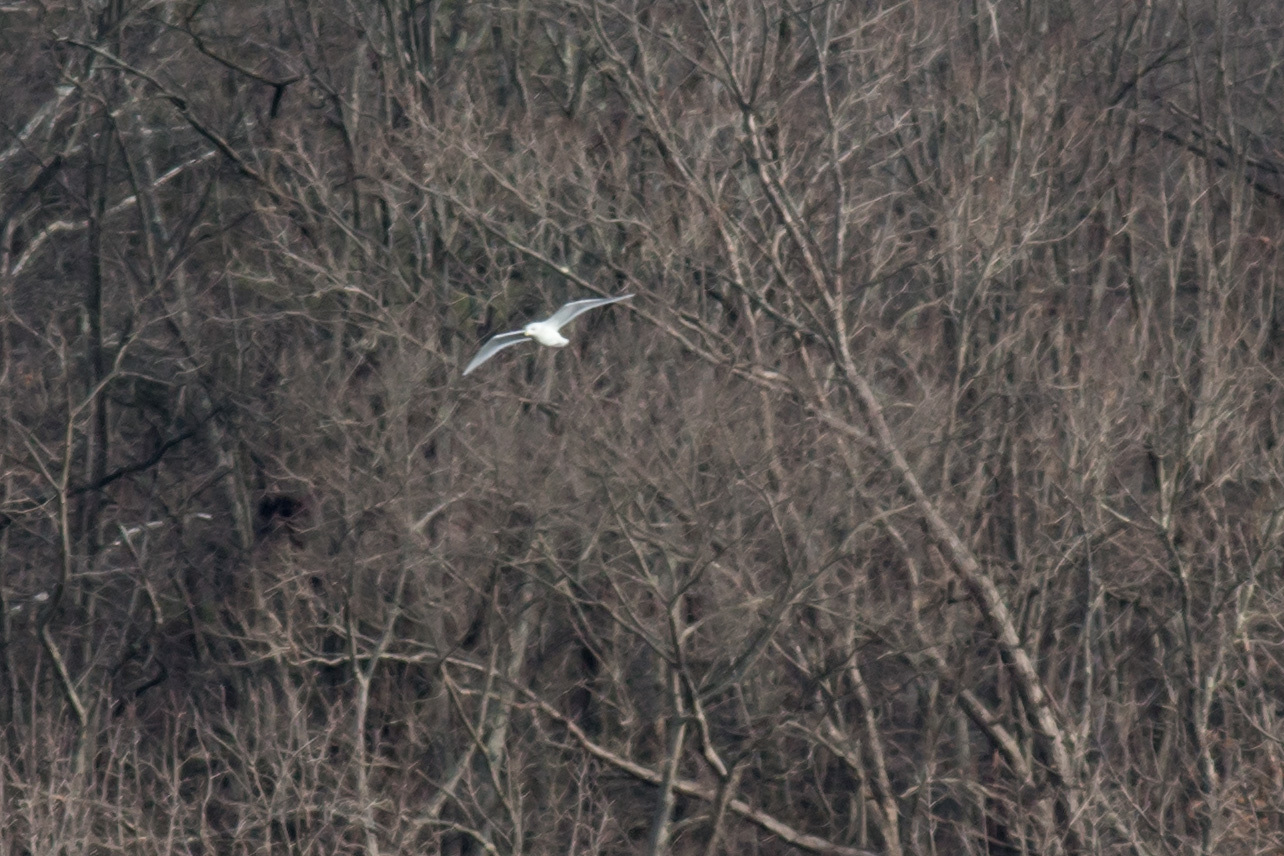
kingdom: Animalia
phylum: Chordata
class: Aves
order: Charadriiformes
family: Laridae
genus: Larus
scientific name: Larus glaucoides
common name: Iceland gull
